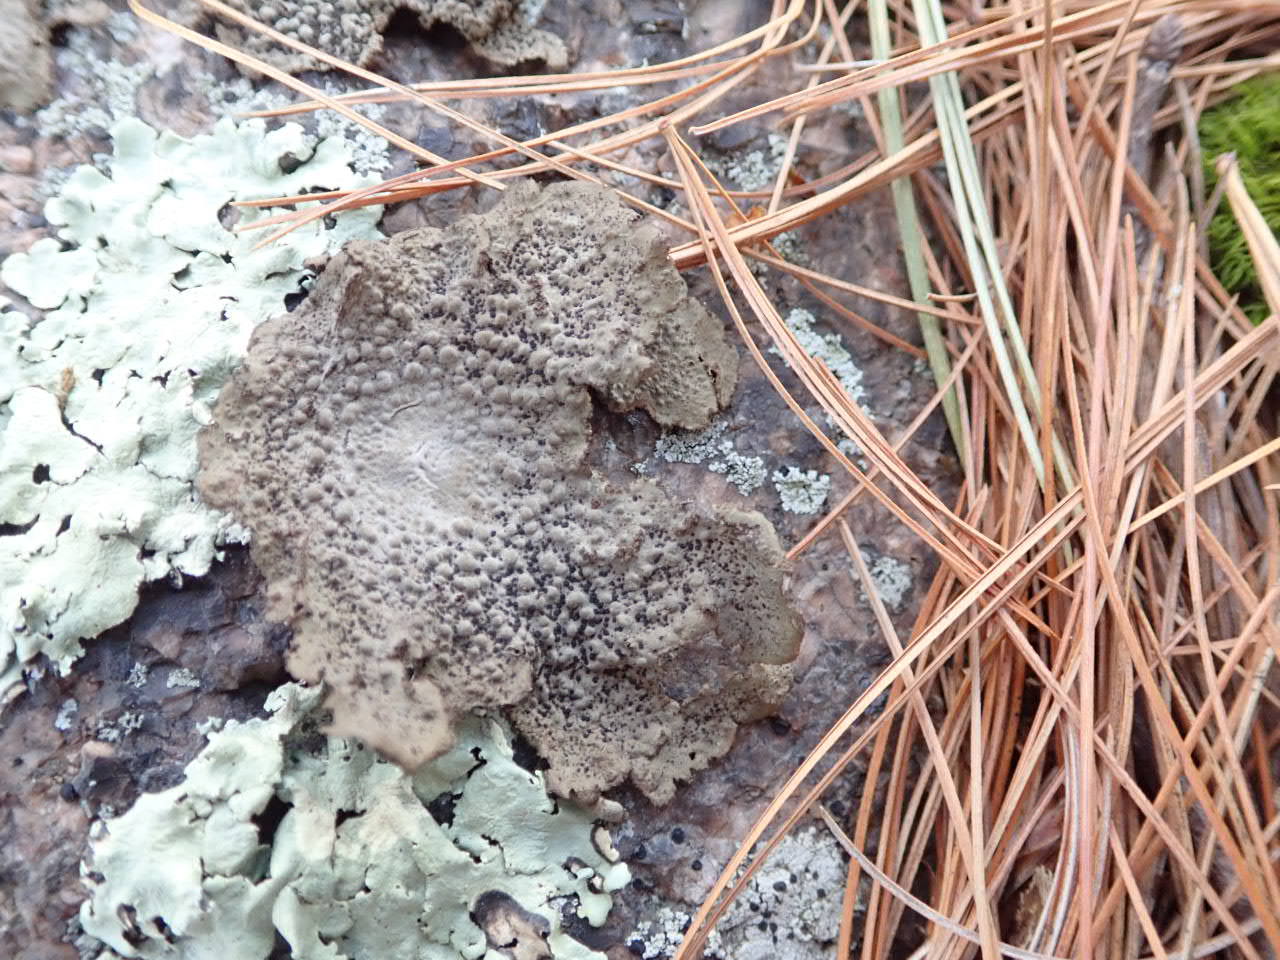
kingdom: Fungi
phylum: Ascomycota
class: Lecanoromycetes
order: Umbilicariales
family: Umbilicariaceae
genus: Lasallia
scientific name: Lasallia papulosa
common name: Common toadskin lichen
